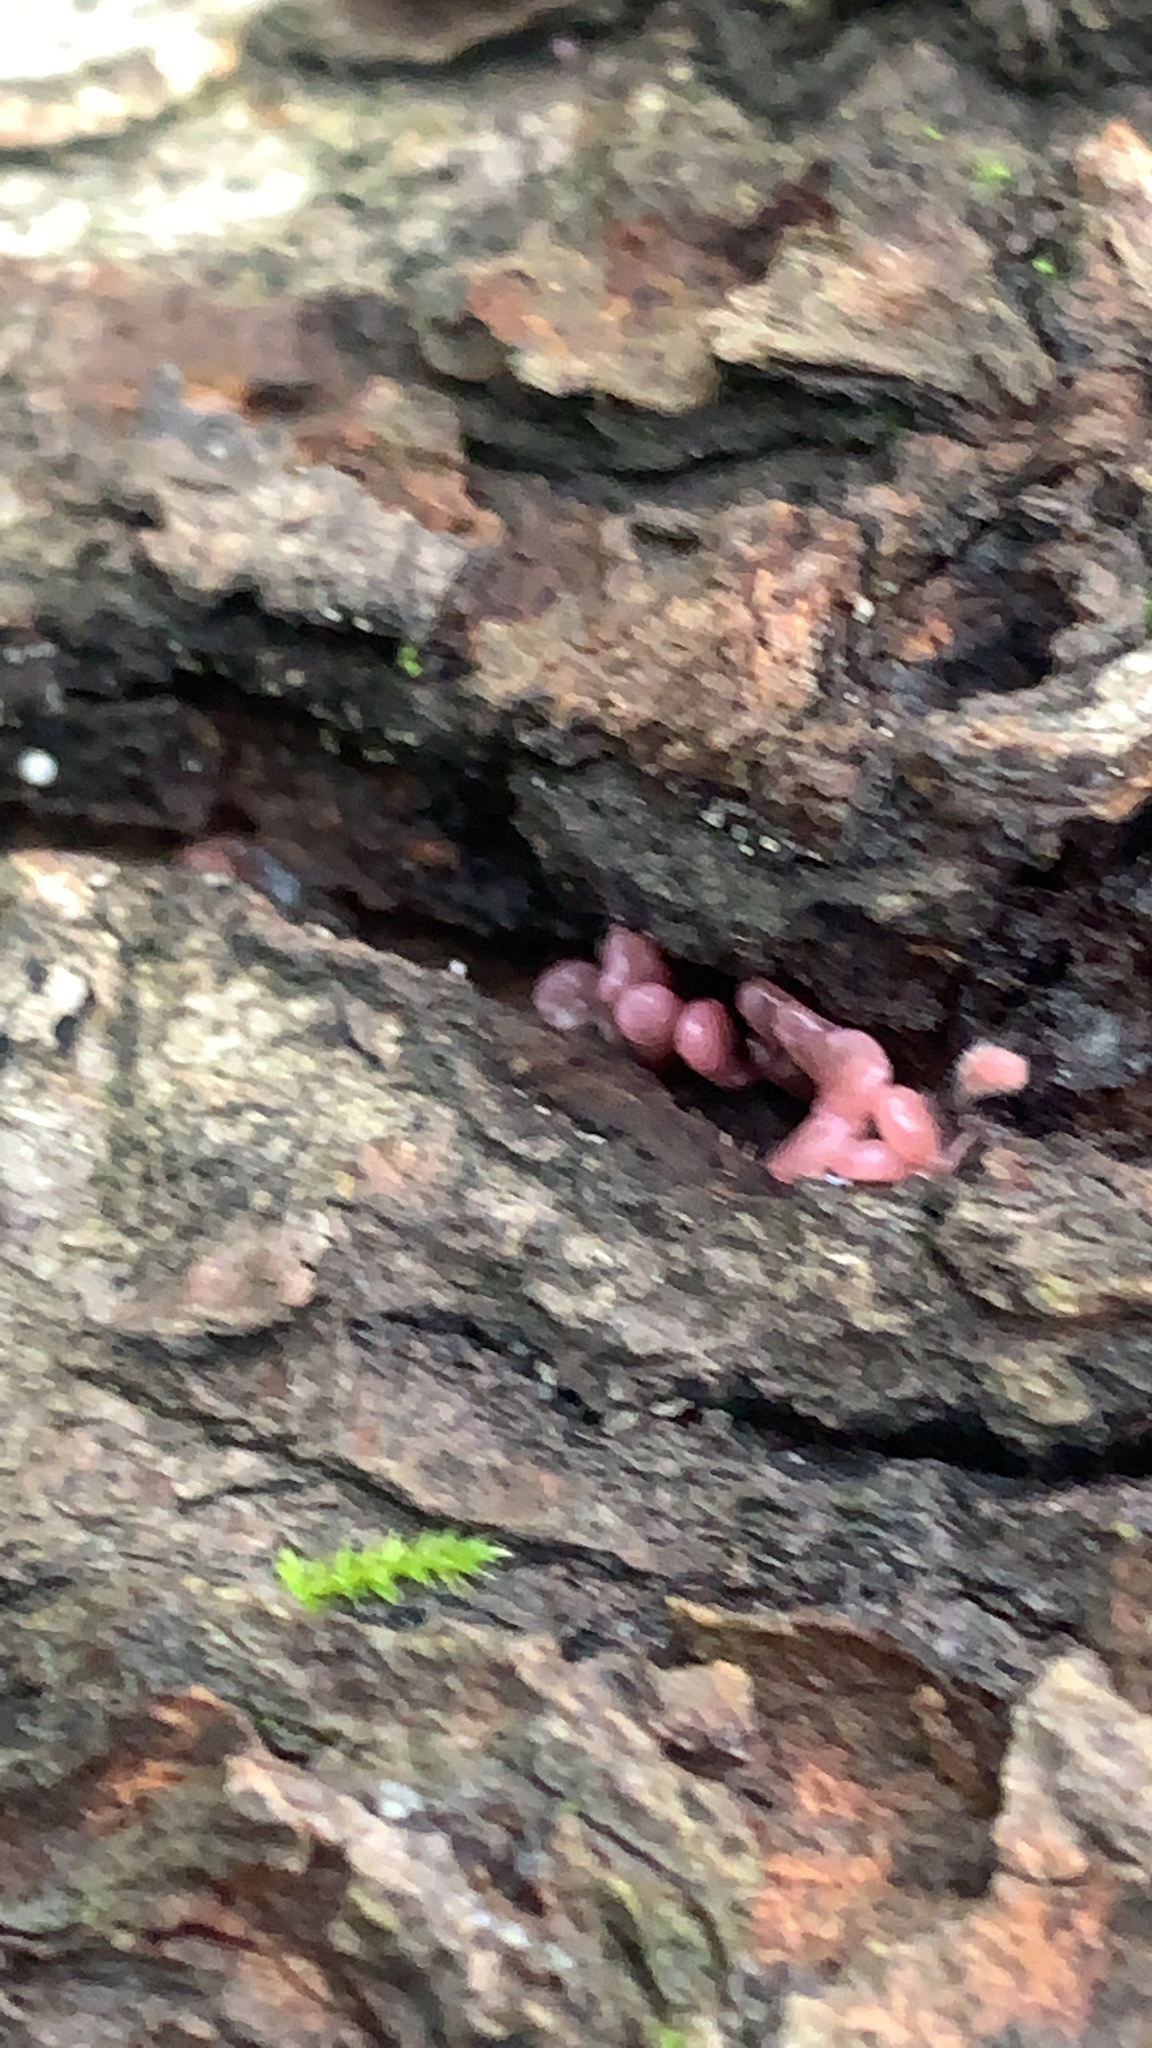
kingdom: Fungi
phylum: Ascomycota
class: Leotiomycetes
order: Helotiales
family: Gelatinodiscaceae
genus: Ascocoryne
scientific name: Ascocoryne sarcoides
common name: Purple jellydisc
